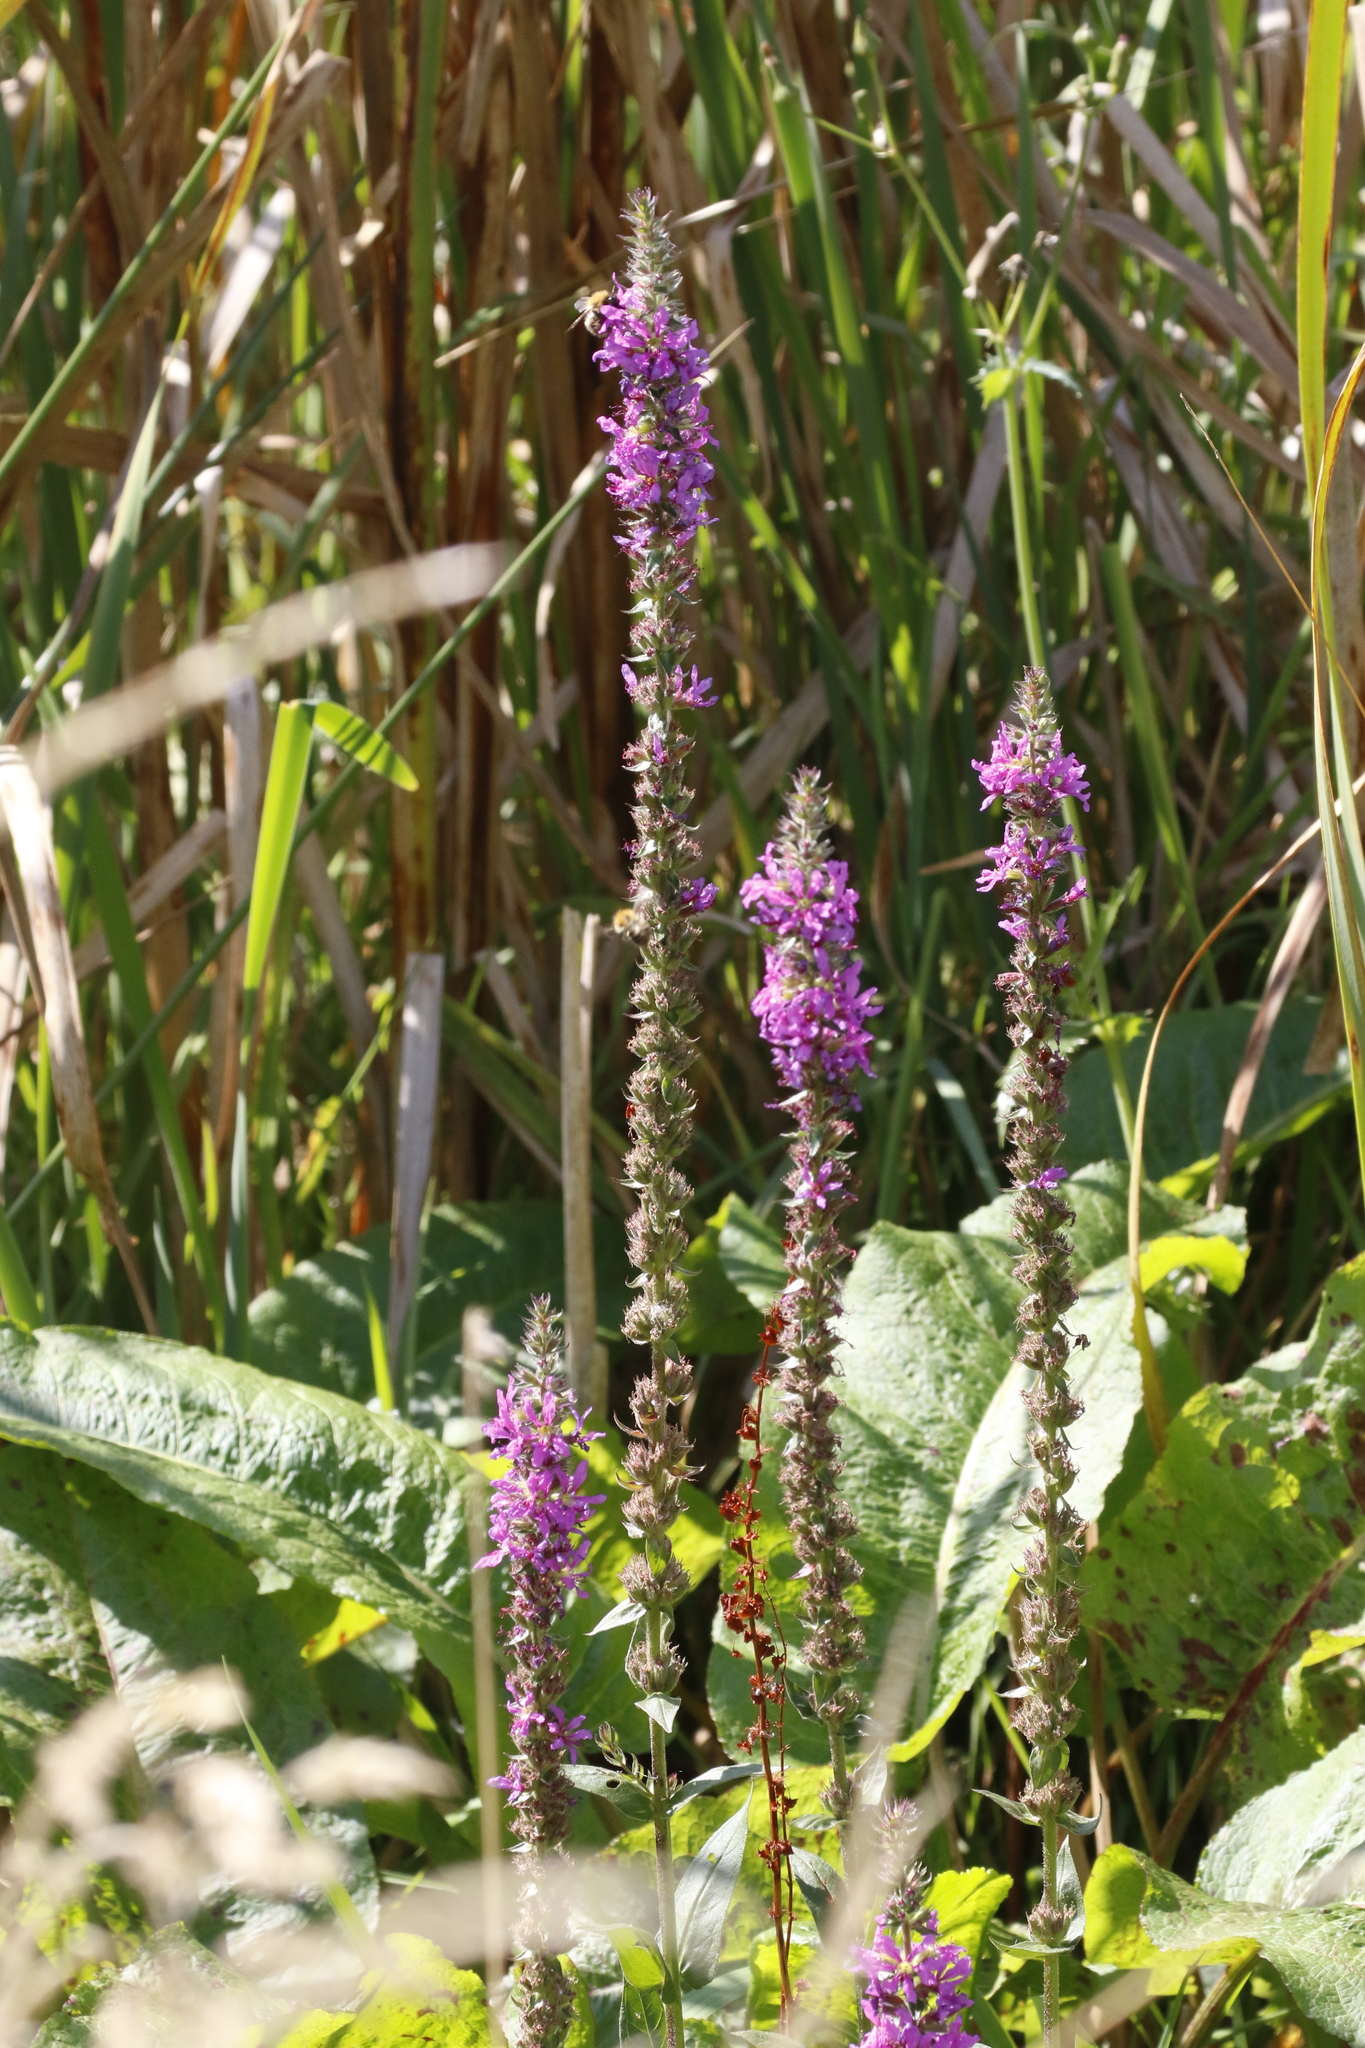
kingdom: Plantae
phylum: Tracheophyta
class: Magnoliopsida
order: Myrtales
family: Lythraceae
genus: Lythrum
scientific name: Lythrum salicaria
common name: Purple loosestrife
